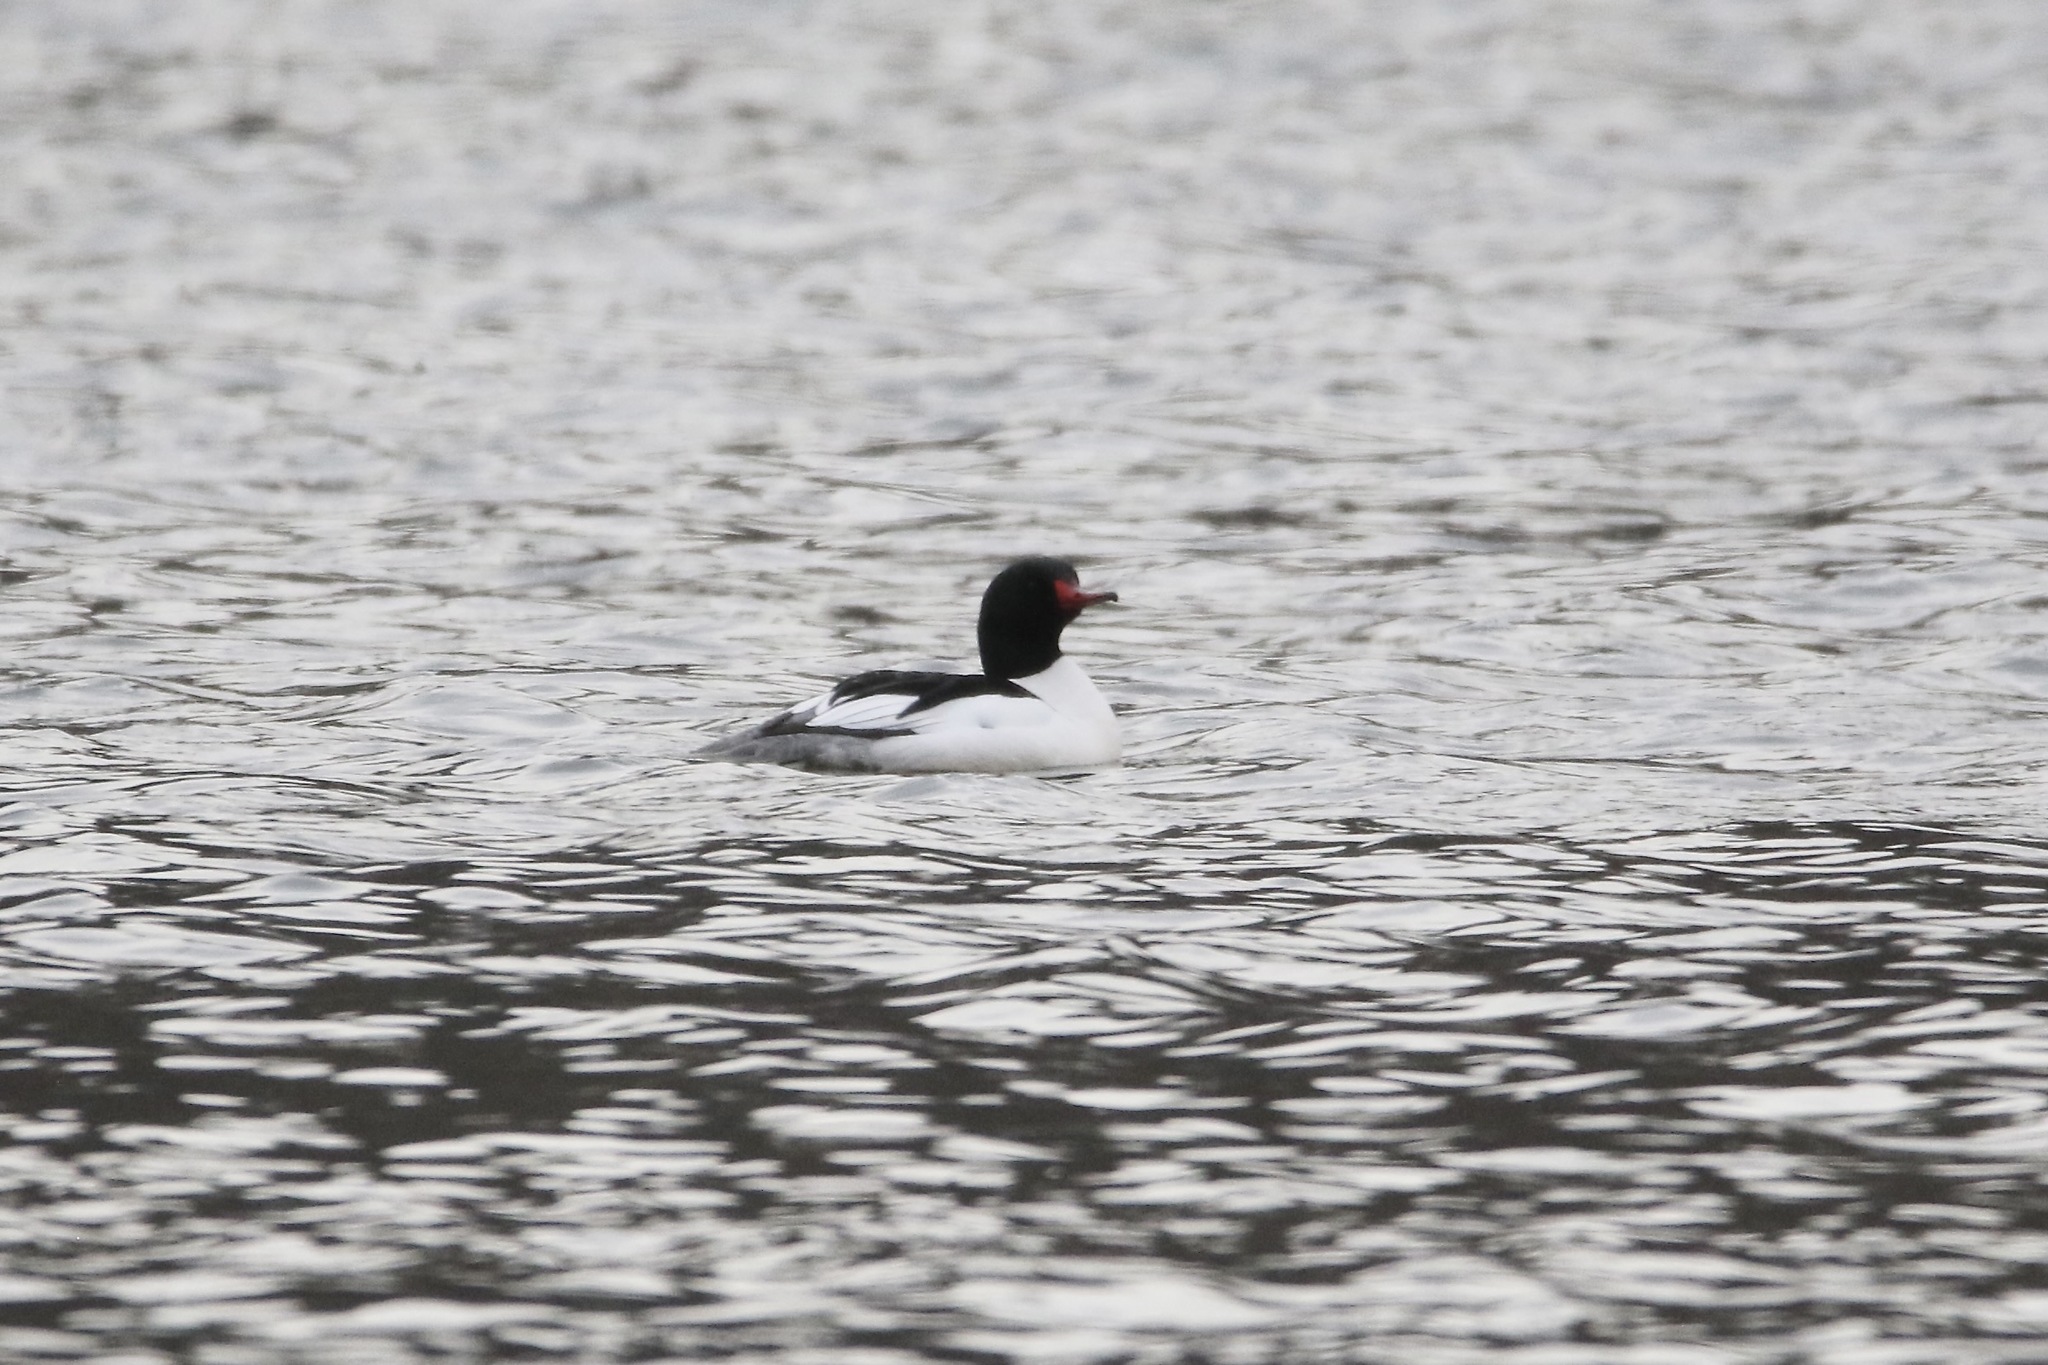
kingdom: Animalia
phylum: Chordata
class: Aves
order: Anseriformes
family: Anatidae
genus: Mergus
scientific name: Mergus merganser
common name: Common merganser
